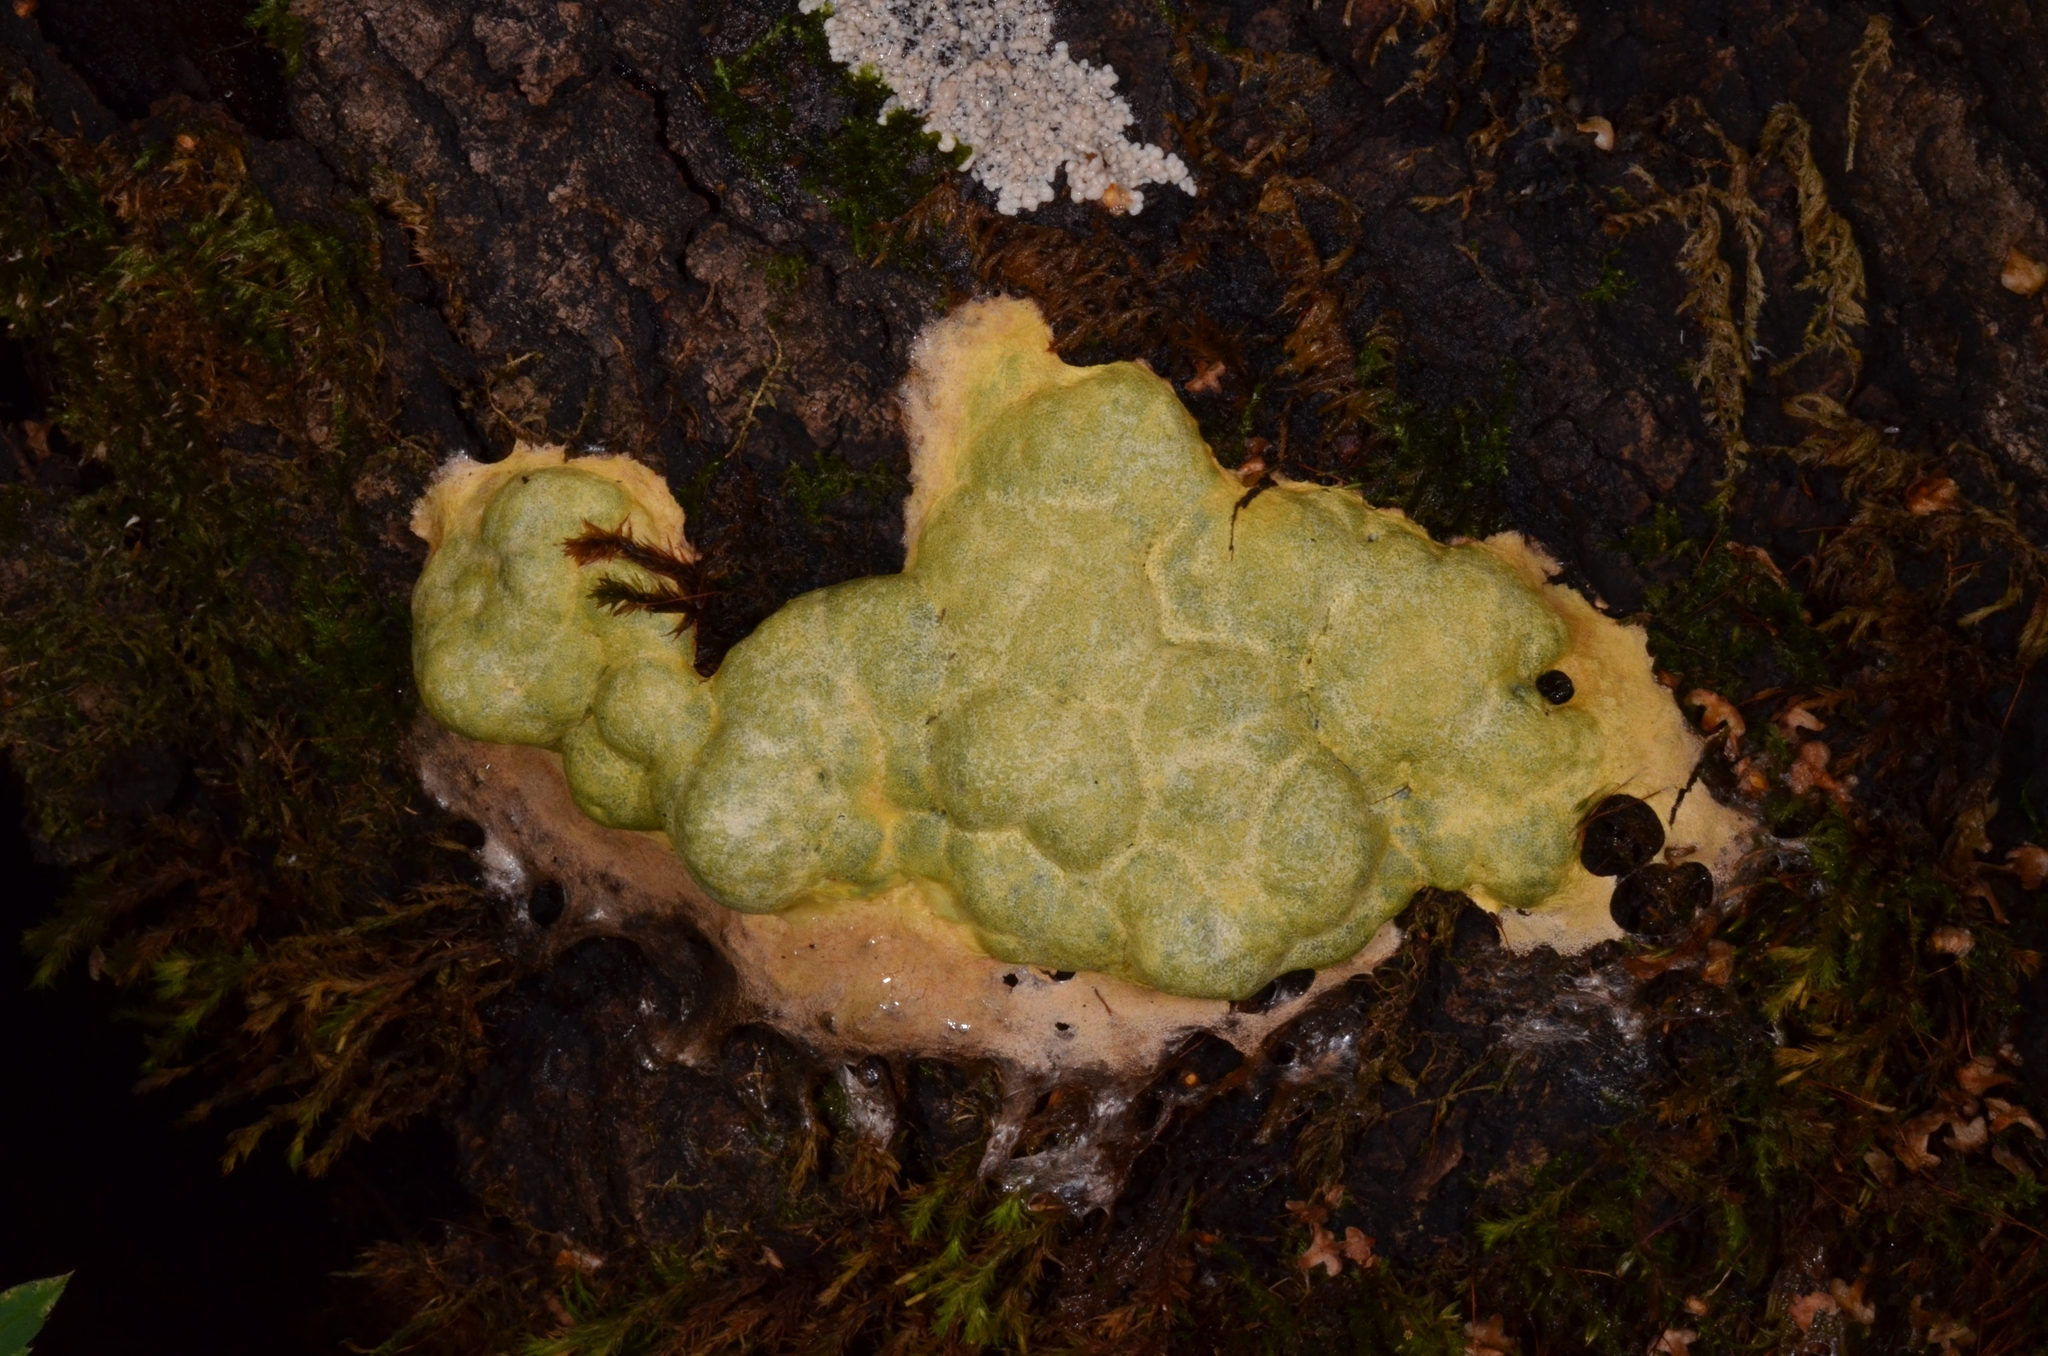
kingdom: Protozoa
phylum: Mycetozoa
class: Myxomycetes
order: Physarales
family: Physaraceae
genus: Fuligo
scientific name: Fuligo septica
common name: Dog vomit slime mold
